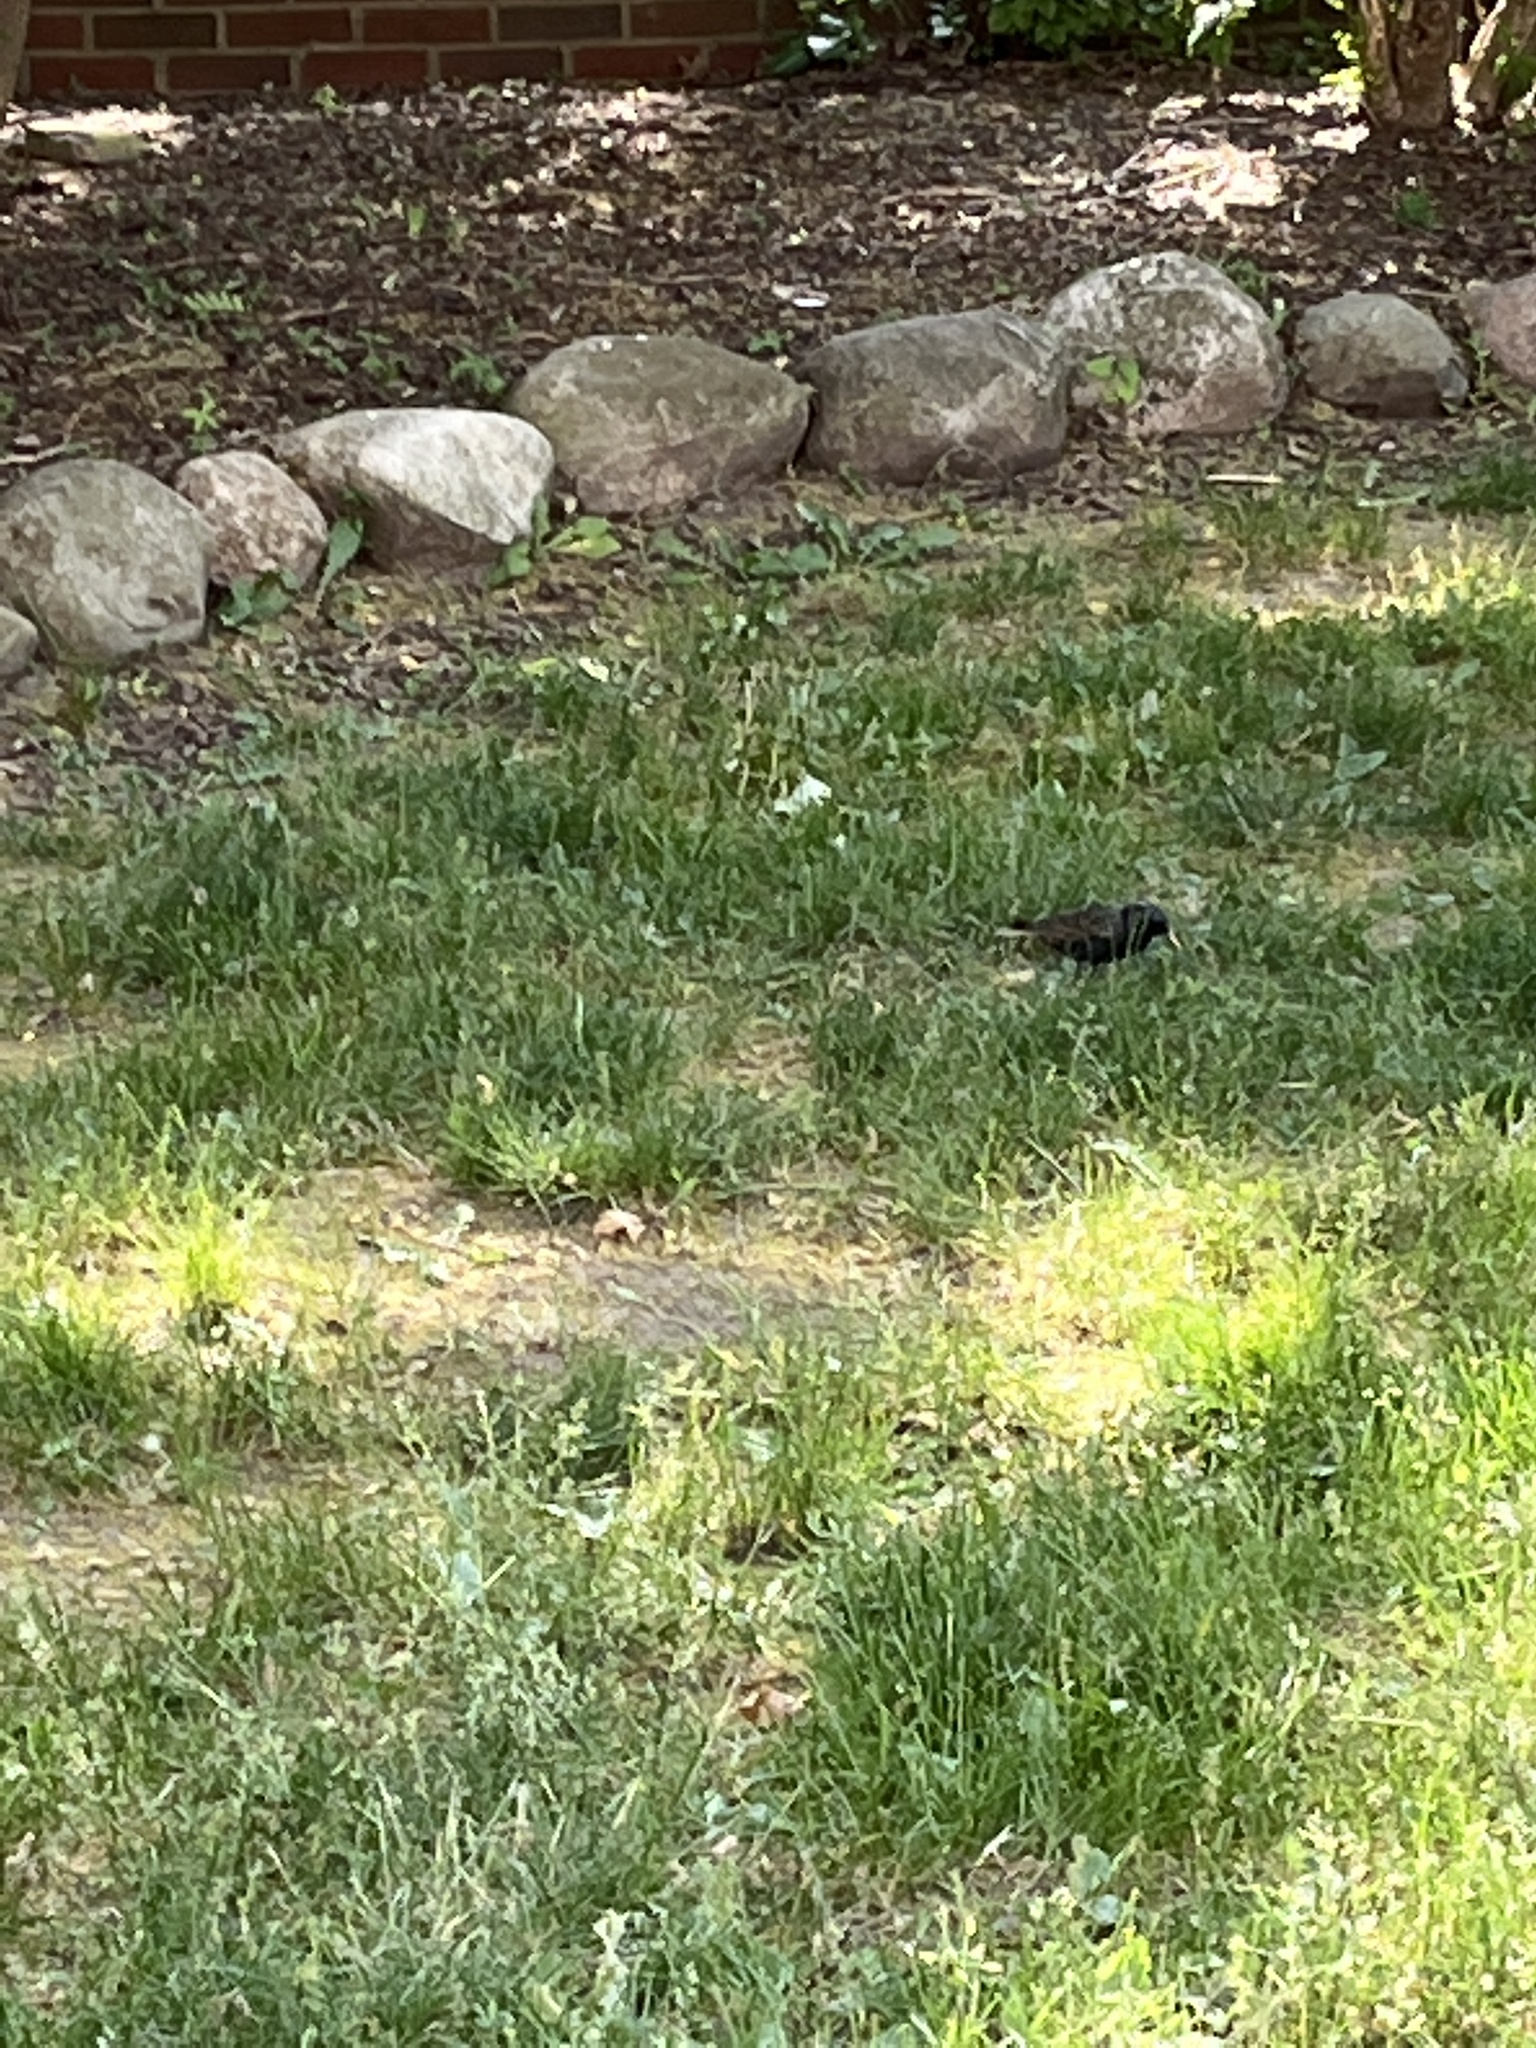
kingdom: Animalia
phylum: Chordata
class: Aves
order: Passeriformes
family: Sturnidae
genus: Sturnus
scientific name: Sturnus vulgaris
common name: Common starling
